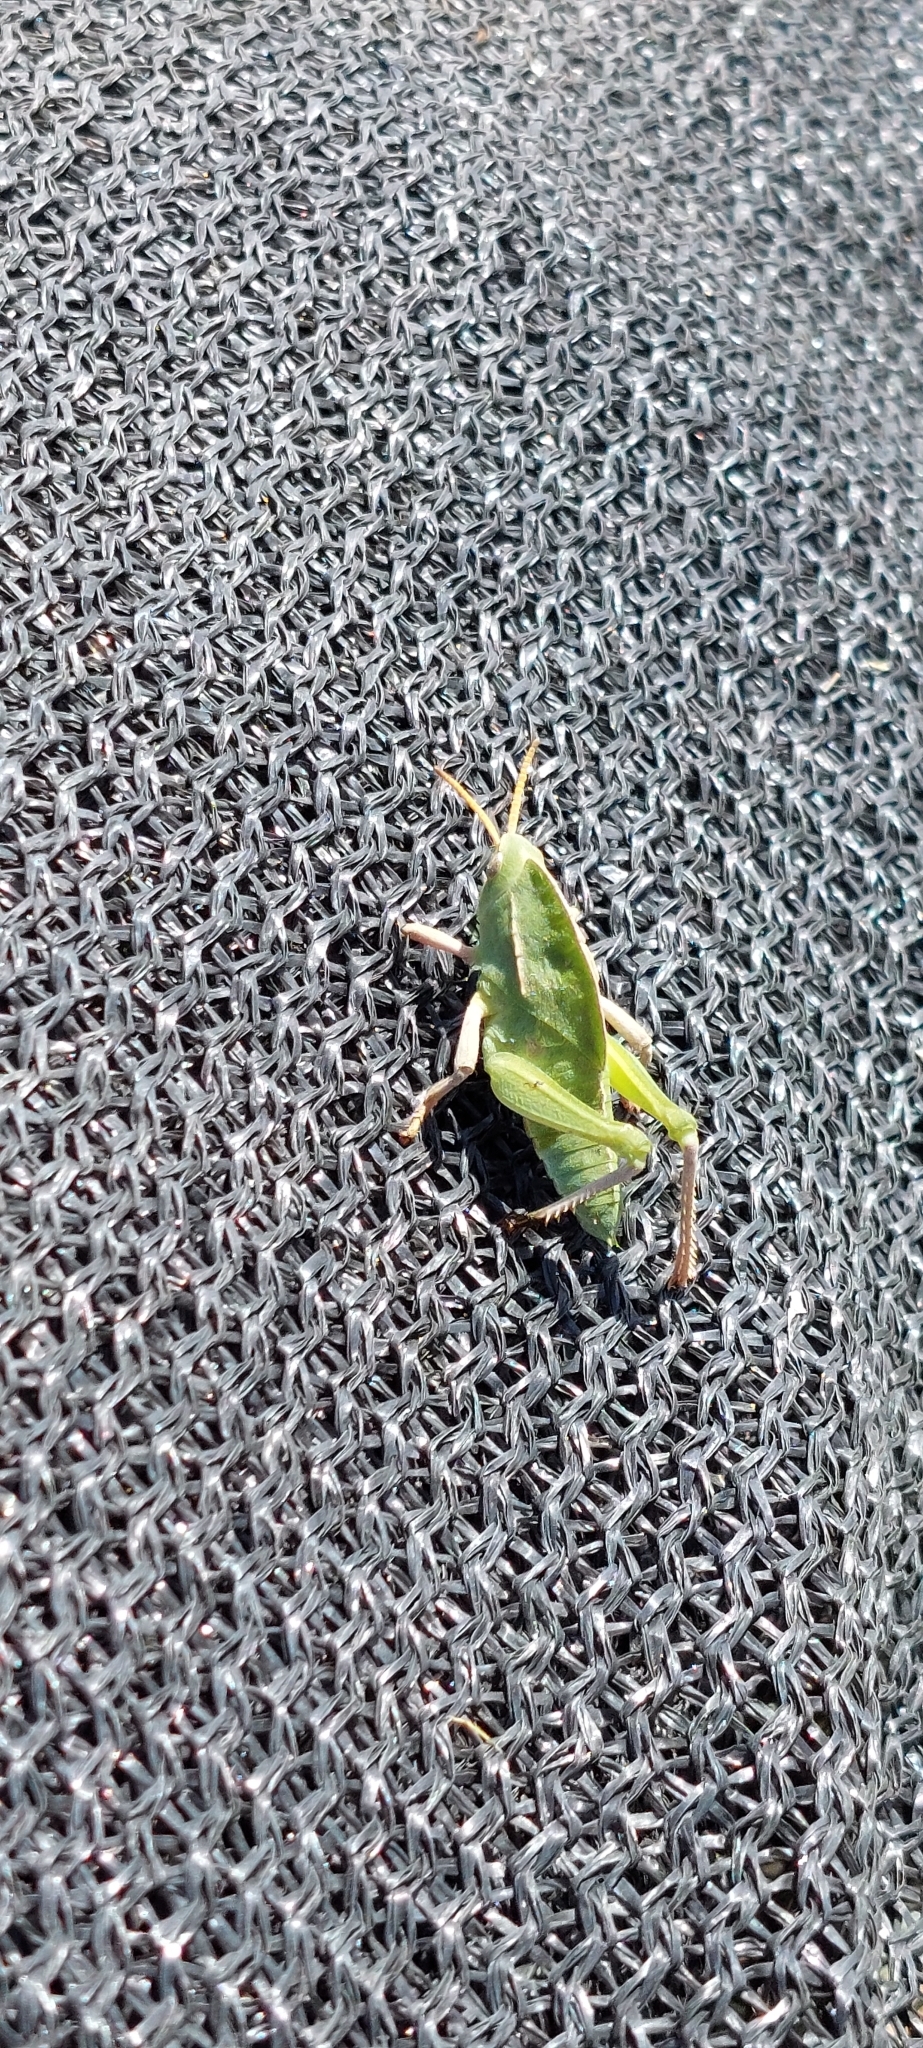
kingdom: Animalia
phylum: Arthropoda
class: Insecta
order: Orthoptera
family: Romaleidae
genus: Alcamenes
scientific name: Alcamenes granulatus
